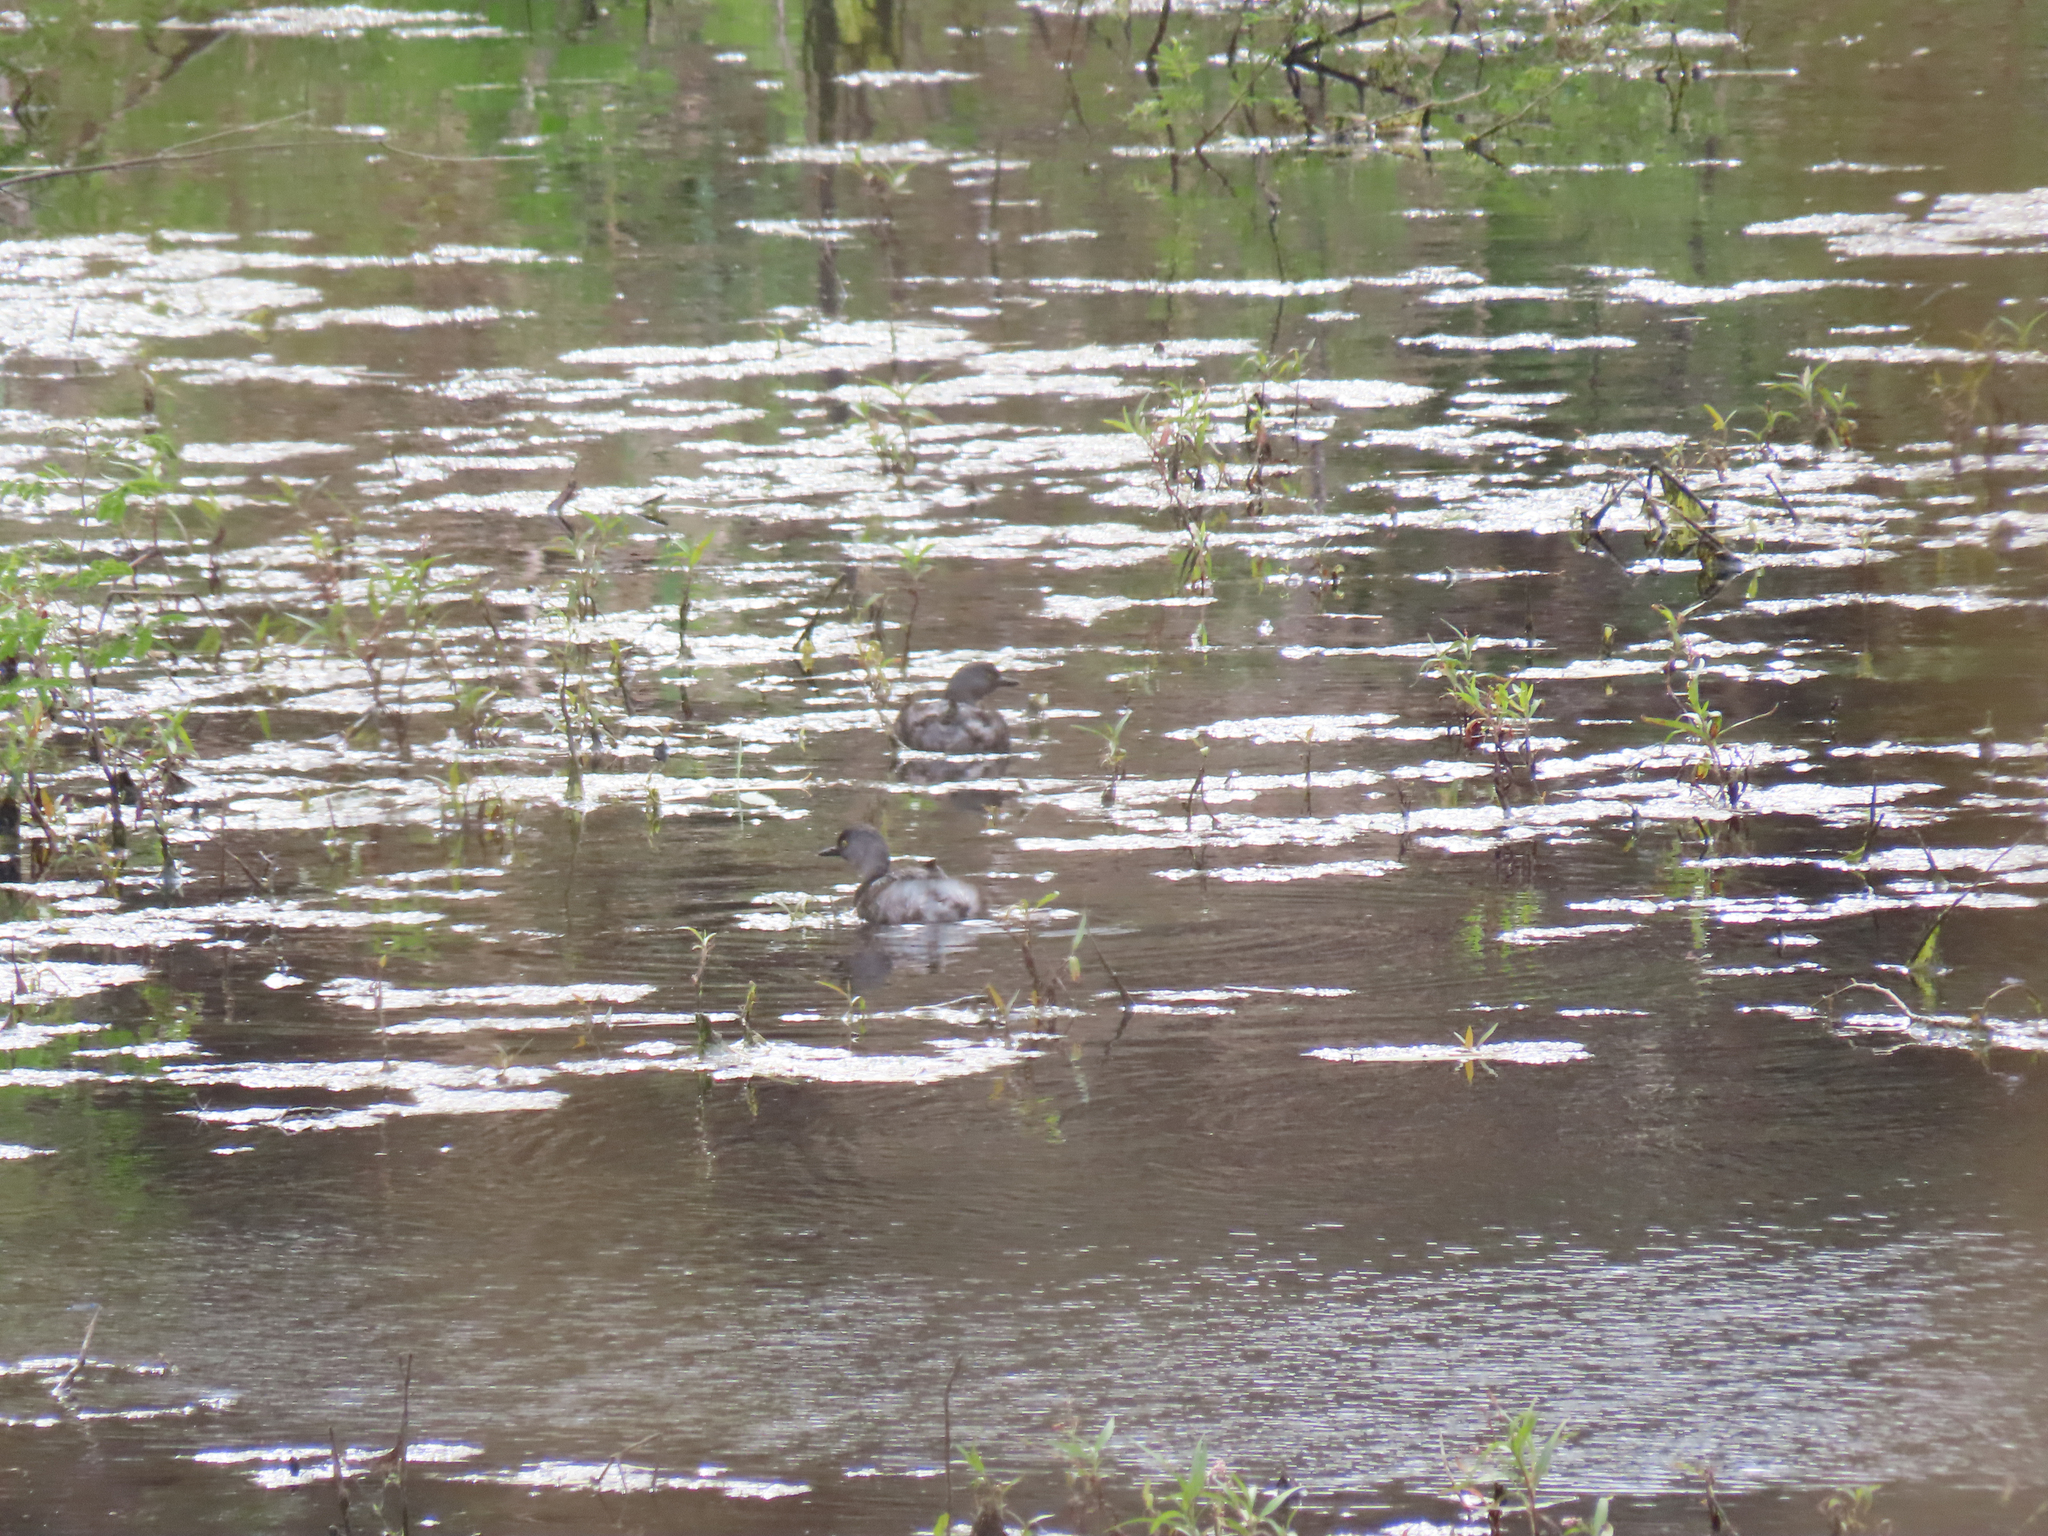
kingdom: Animalia
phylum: Chordata
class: Aves
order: Podicipediformes
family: Podicipedidae
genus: Tachybaptus
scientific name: Tachybaptus dominicus
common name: Least grebe
